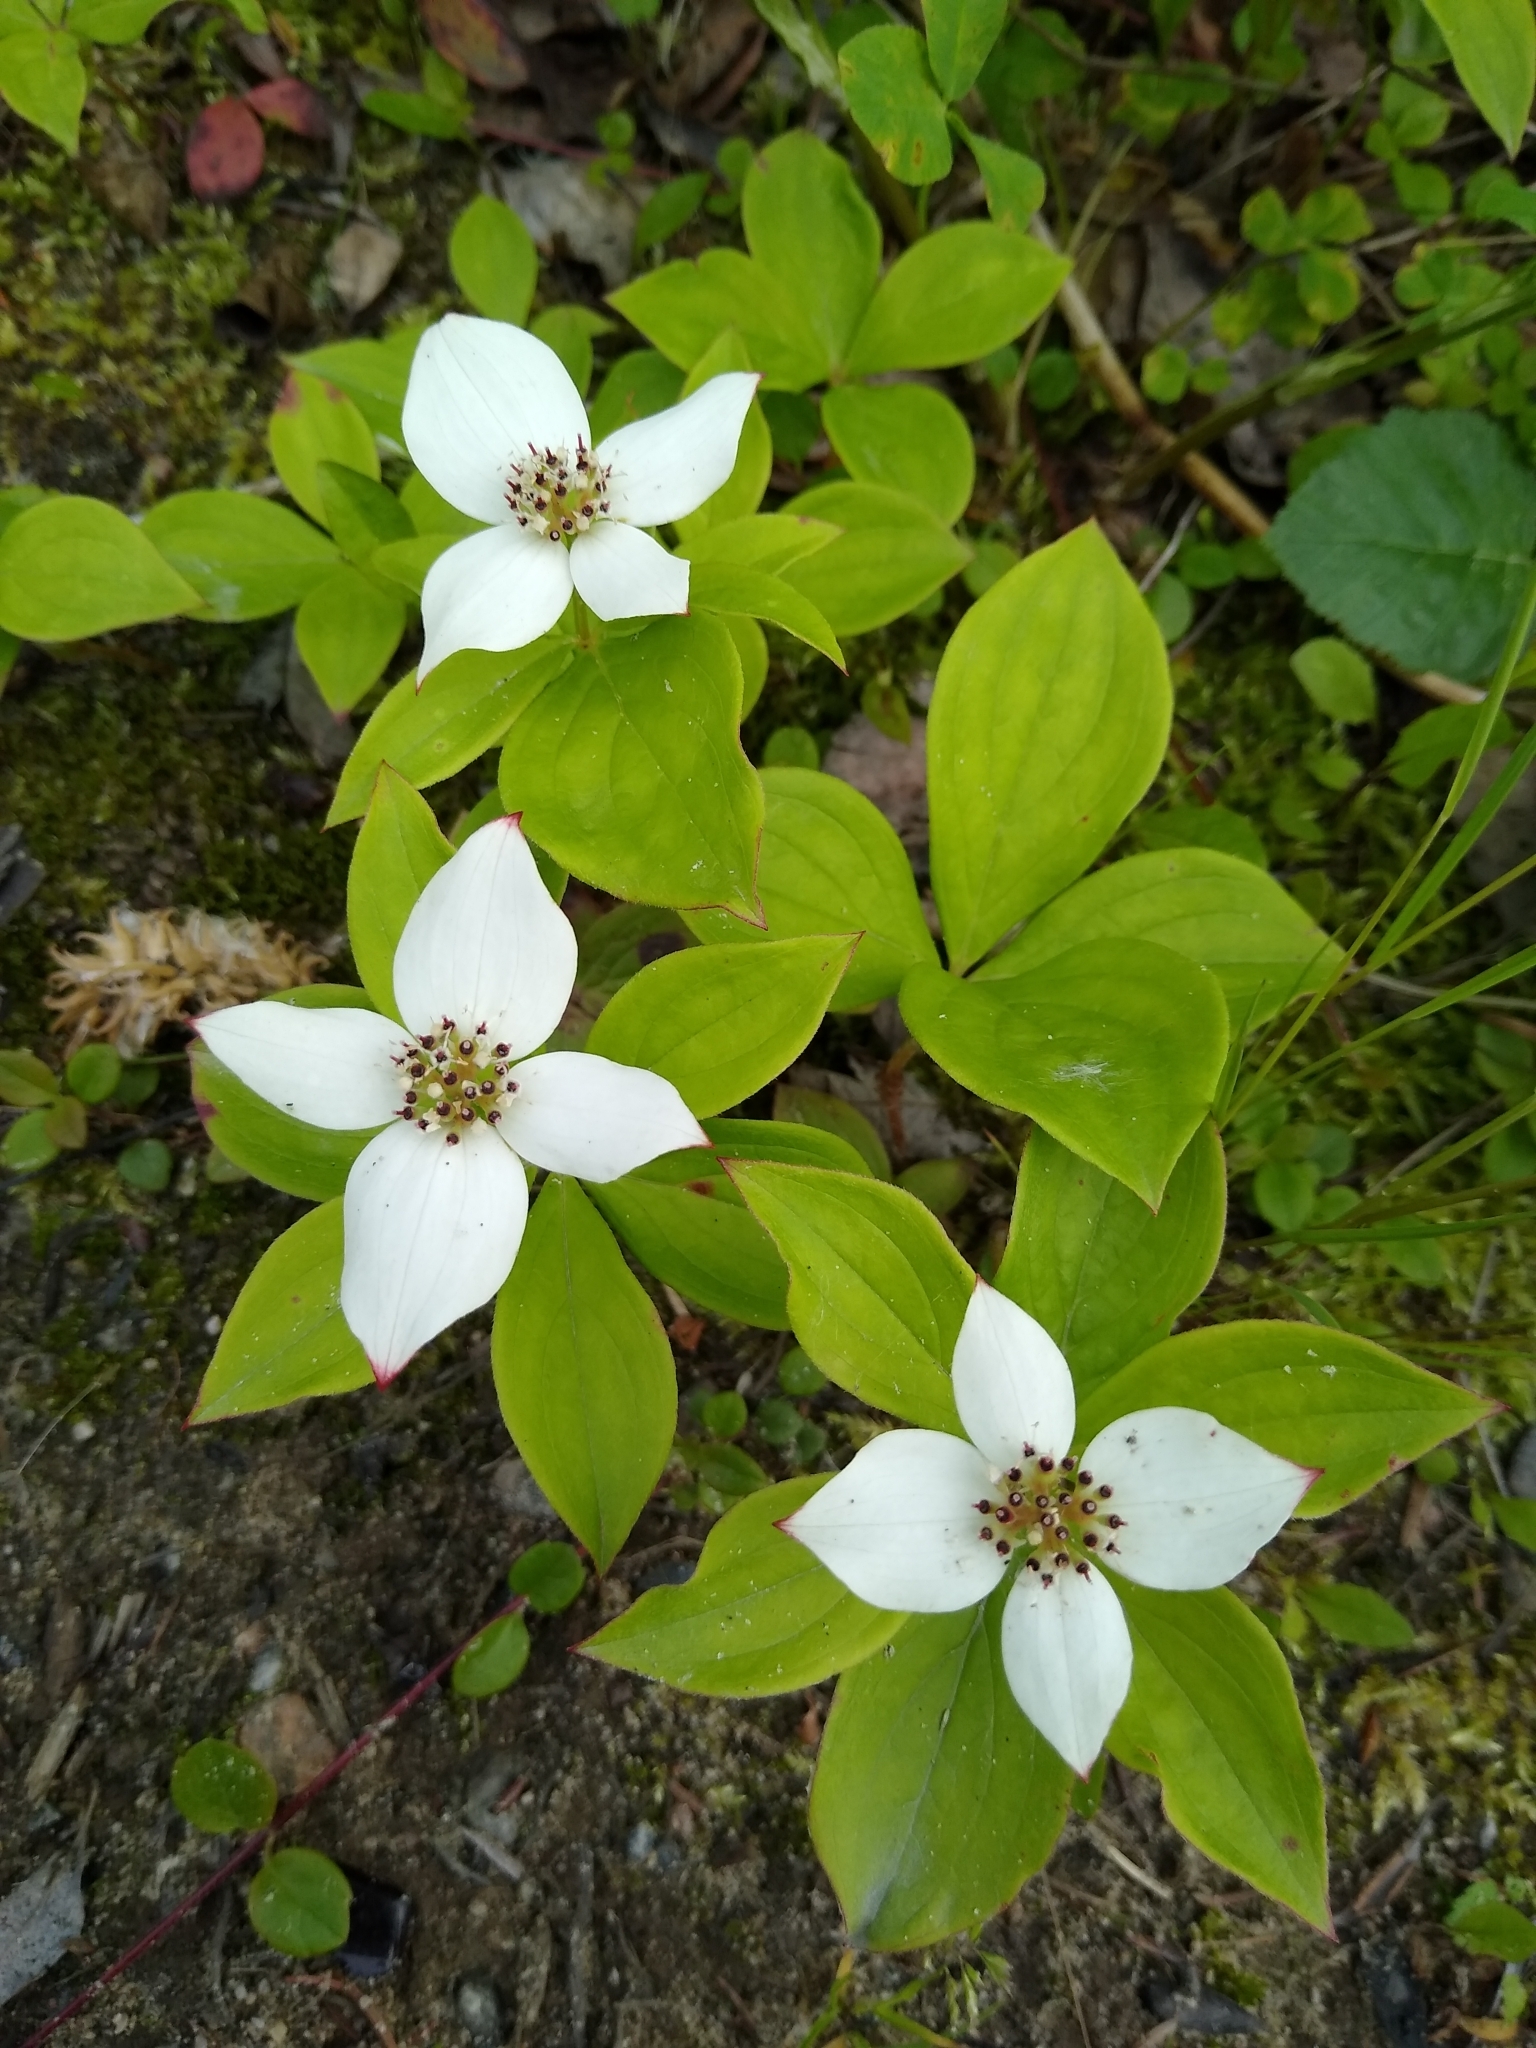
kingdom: Plantae
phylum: Tracheophyta
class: Magnoliopsida
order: Cornales
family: Cornaceae
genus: Cornus
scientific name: Cornus canadensis
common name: Creeping dogwood
